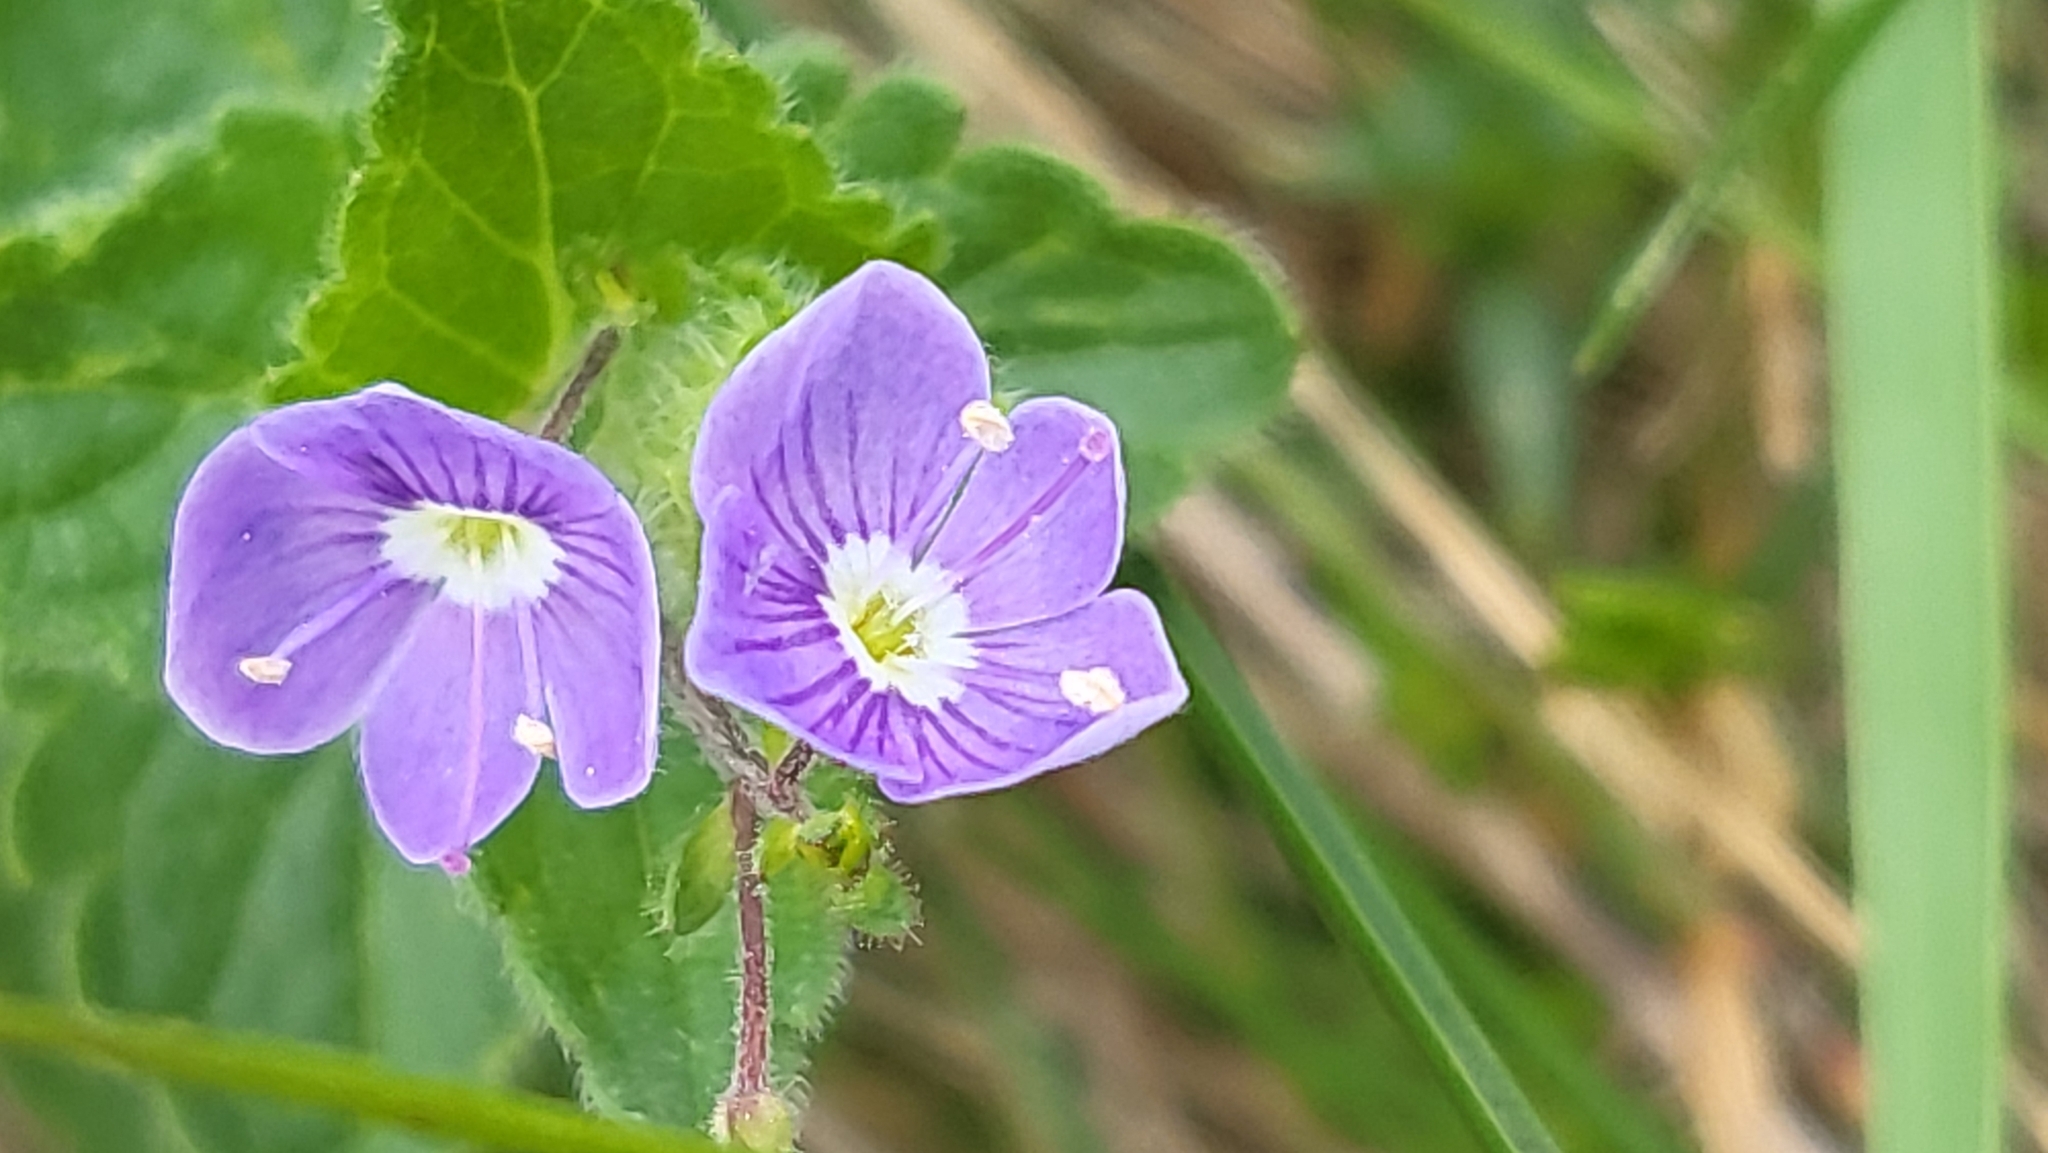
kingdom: Plantae
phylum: Tracheophyta
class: Magnoliopsida
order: Lamiales
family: Plantaginaceae
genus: Veronica
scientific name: Veronica chamaedrys
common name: Germander speedwell
